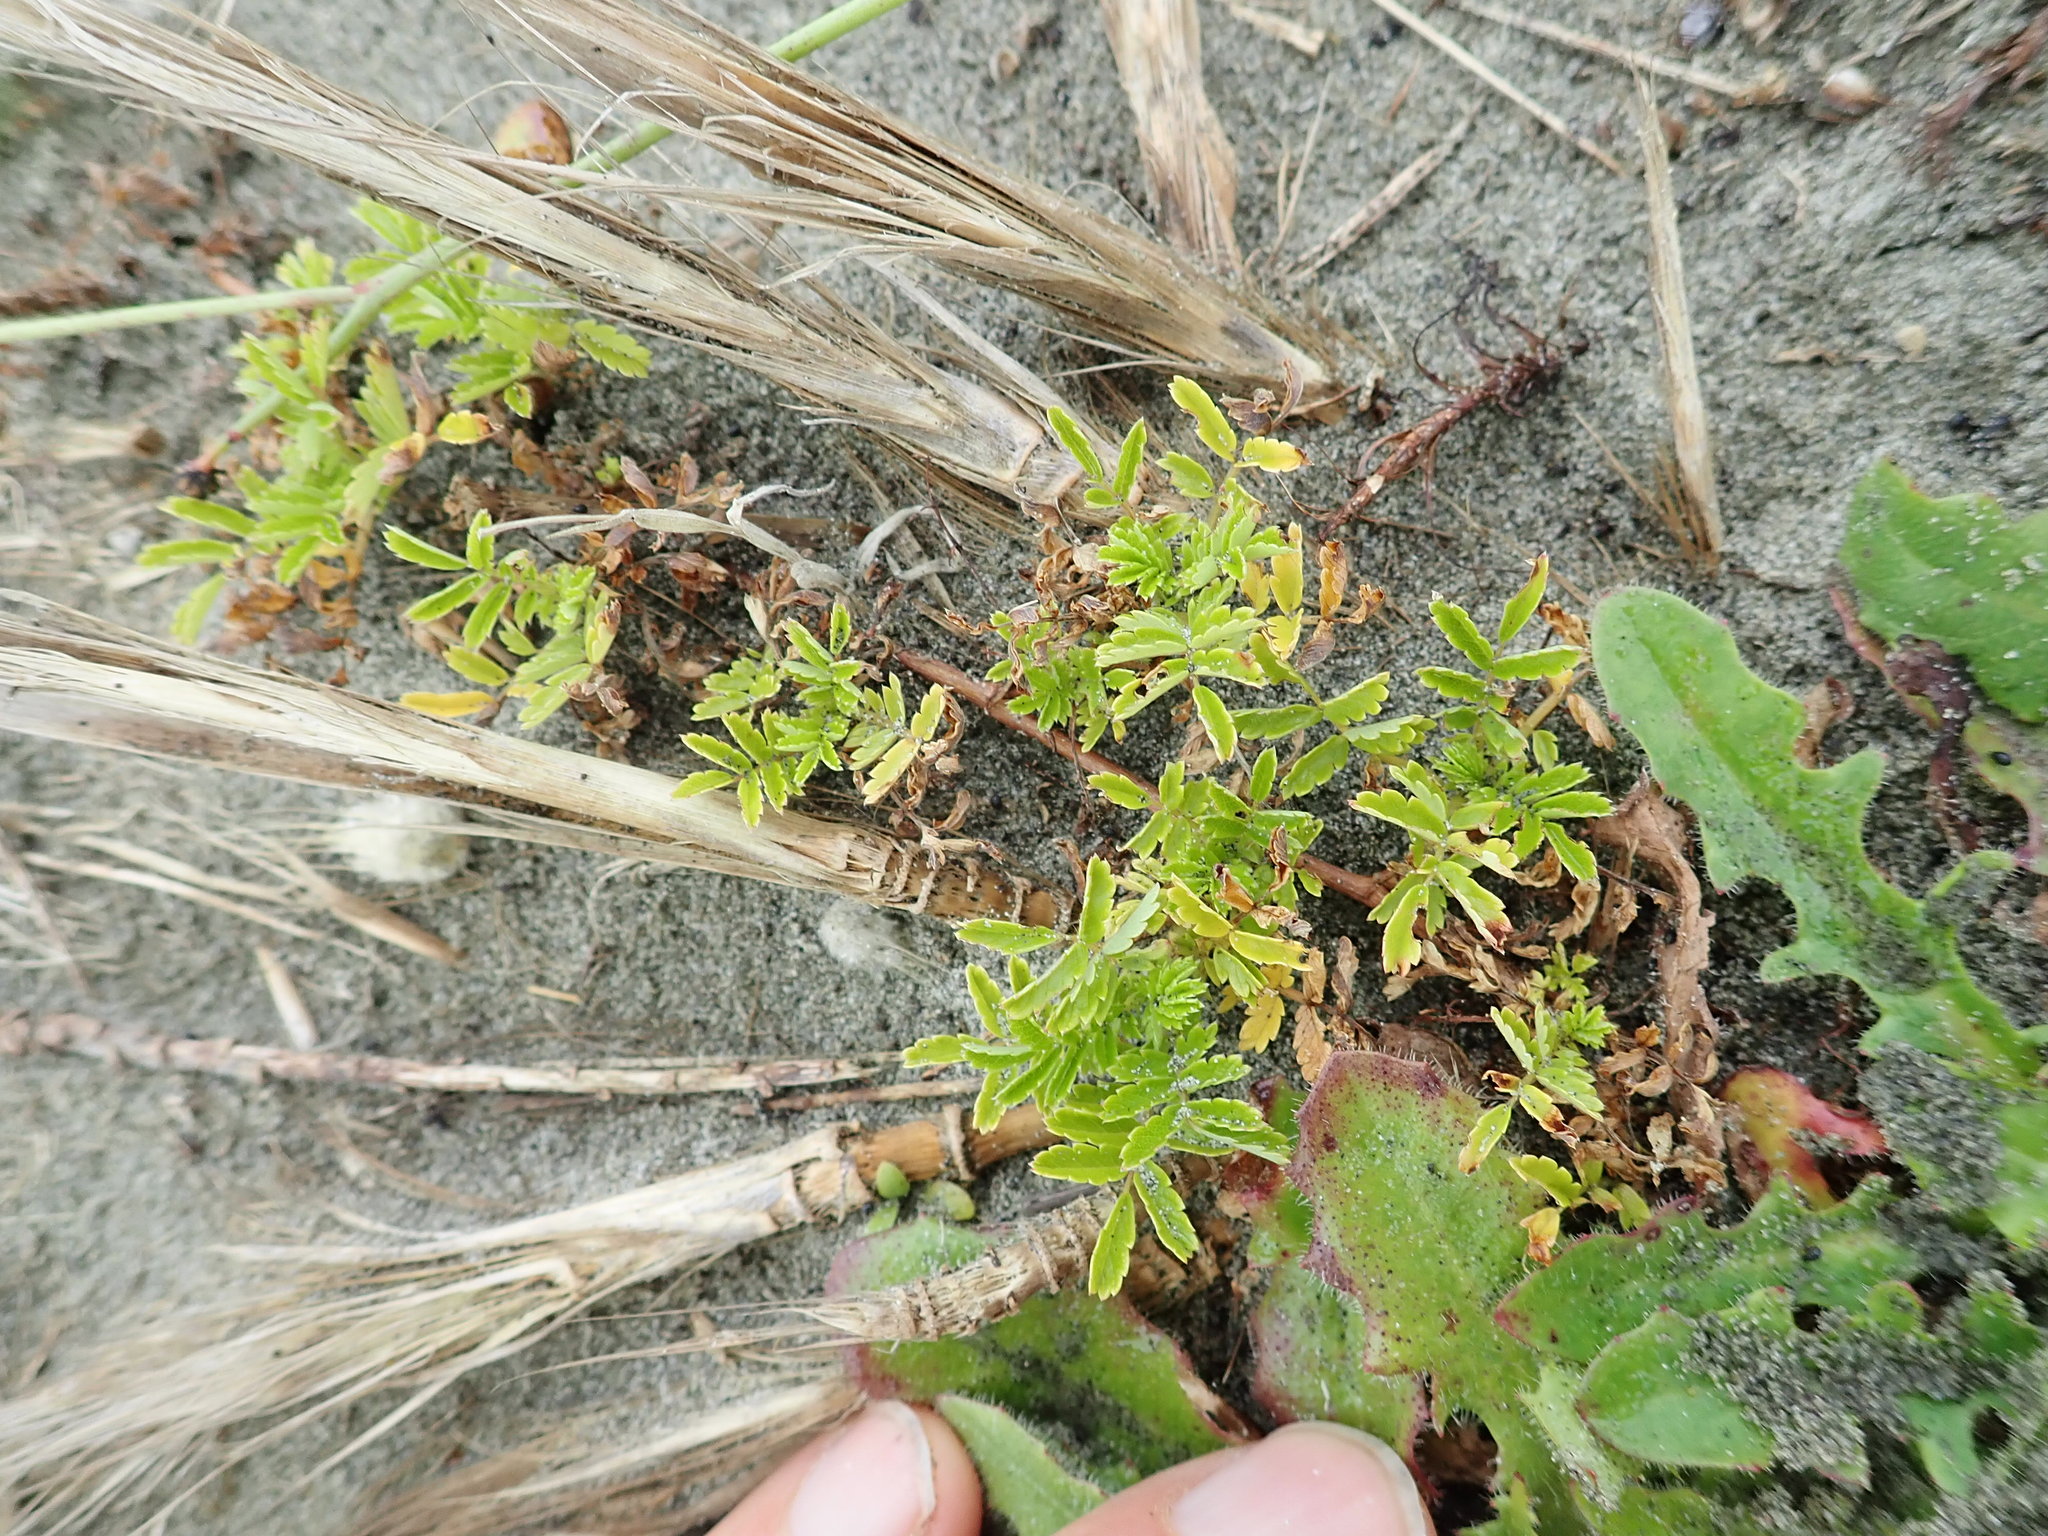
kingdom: Plantae
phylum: Tracheophyta
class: Magnoliopsida
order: Rosales
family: Rosaceae
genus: Acaena
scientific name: Acaena novae-zelandiae
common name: Pirri-pirri-bur
